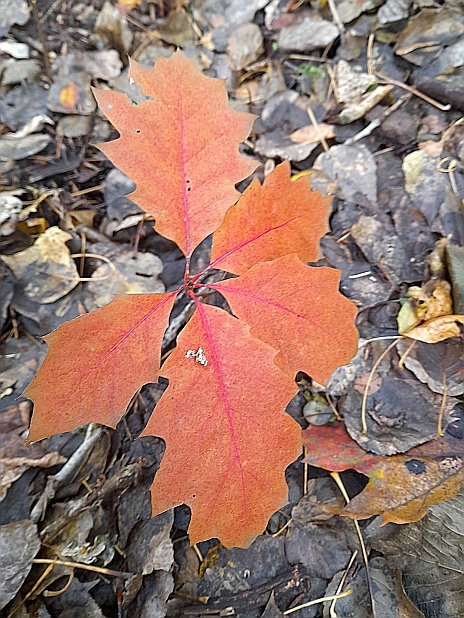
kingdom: Plantae
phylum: Tracheophyta
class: Magnoliopsida
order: Fagales
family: Fagaceae
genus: Quercus
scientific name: Quercus rubra
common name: Red oak
